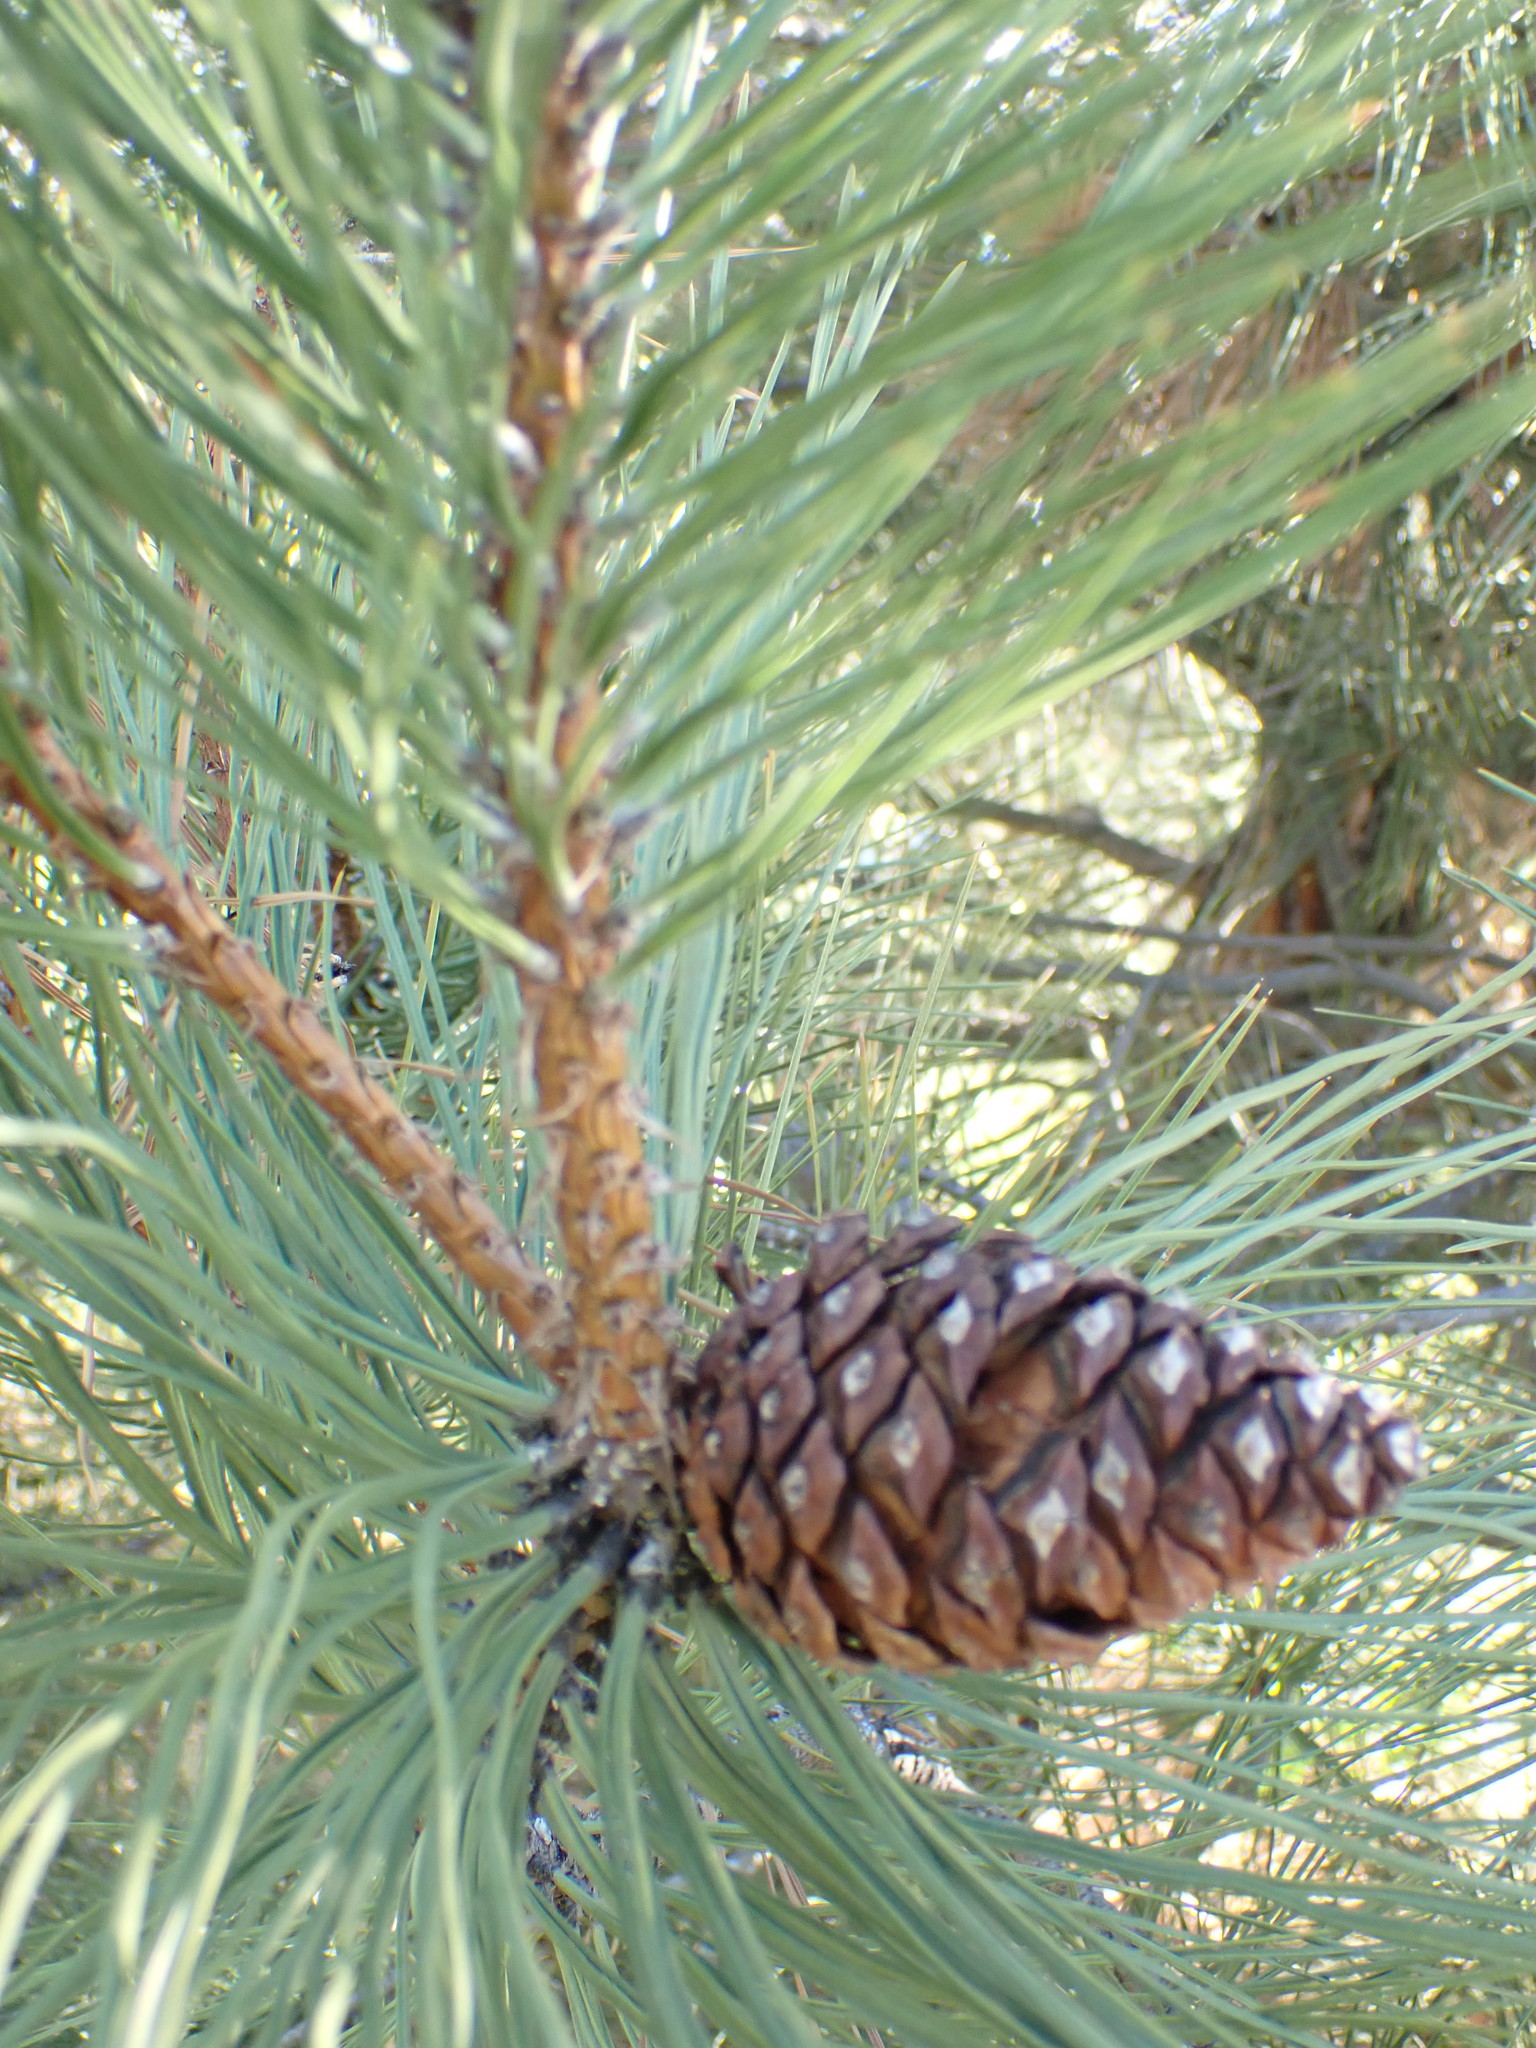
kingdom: Plantae
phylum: Tracheophyta
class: Pinopsida
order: Pinales
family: Pinaceae
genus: Pinus
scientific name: Pinus ponderosa
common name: Western yellow-pine
